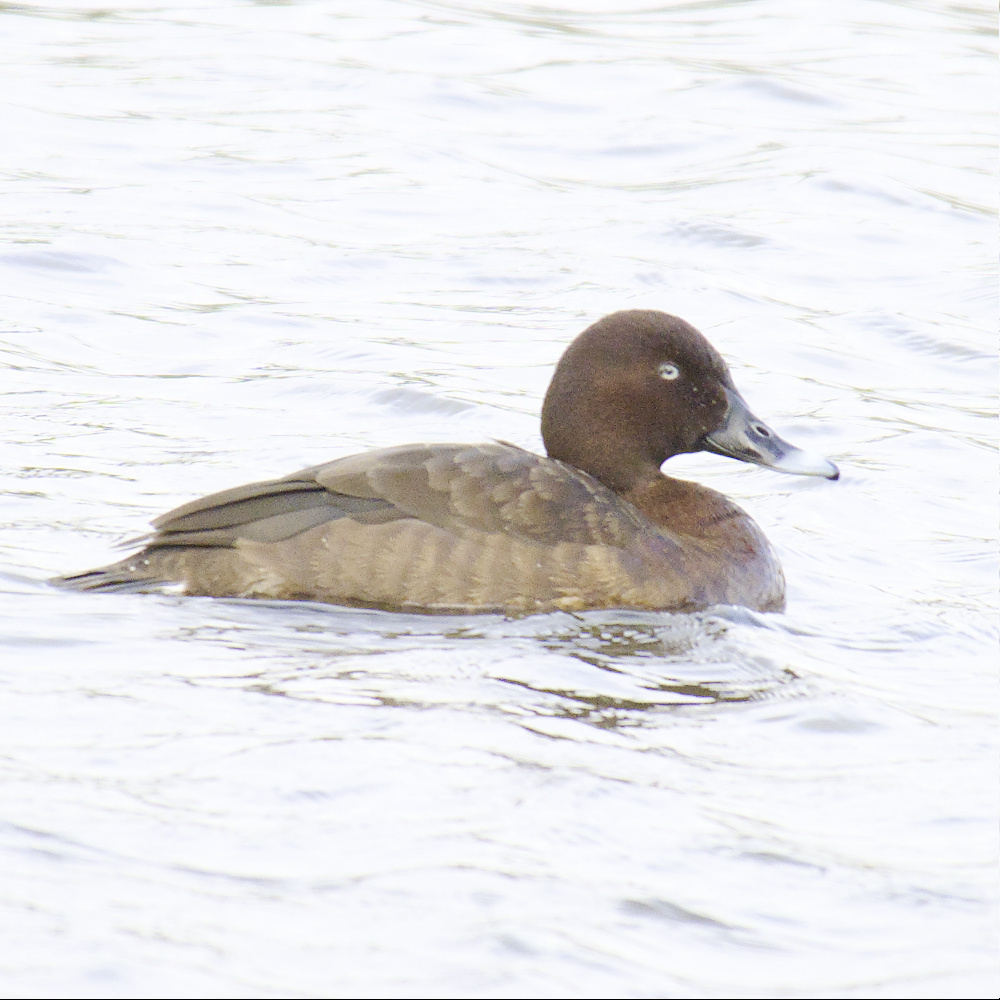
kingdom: Animalia
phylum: Chordata
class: Aves
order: Anseriformes
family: Anatidae
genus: Aythya
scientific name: Aythya australis
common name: Hardhead
